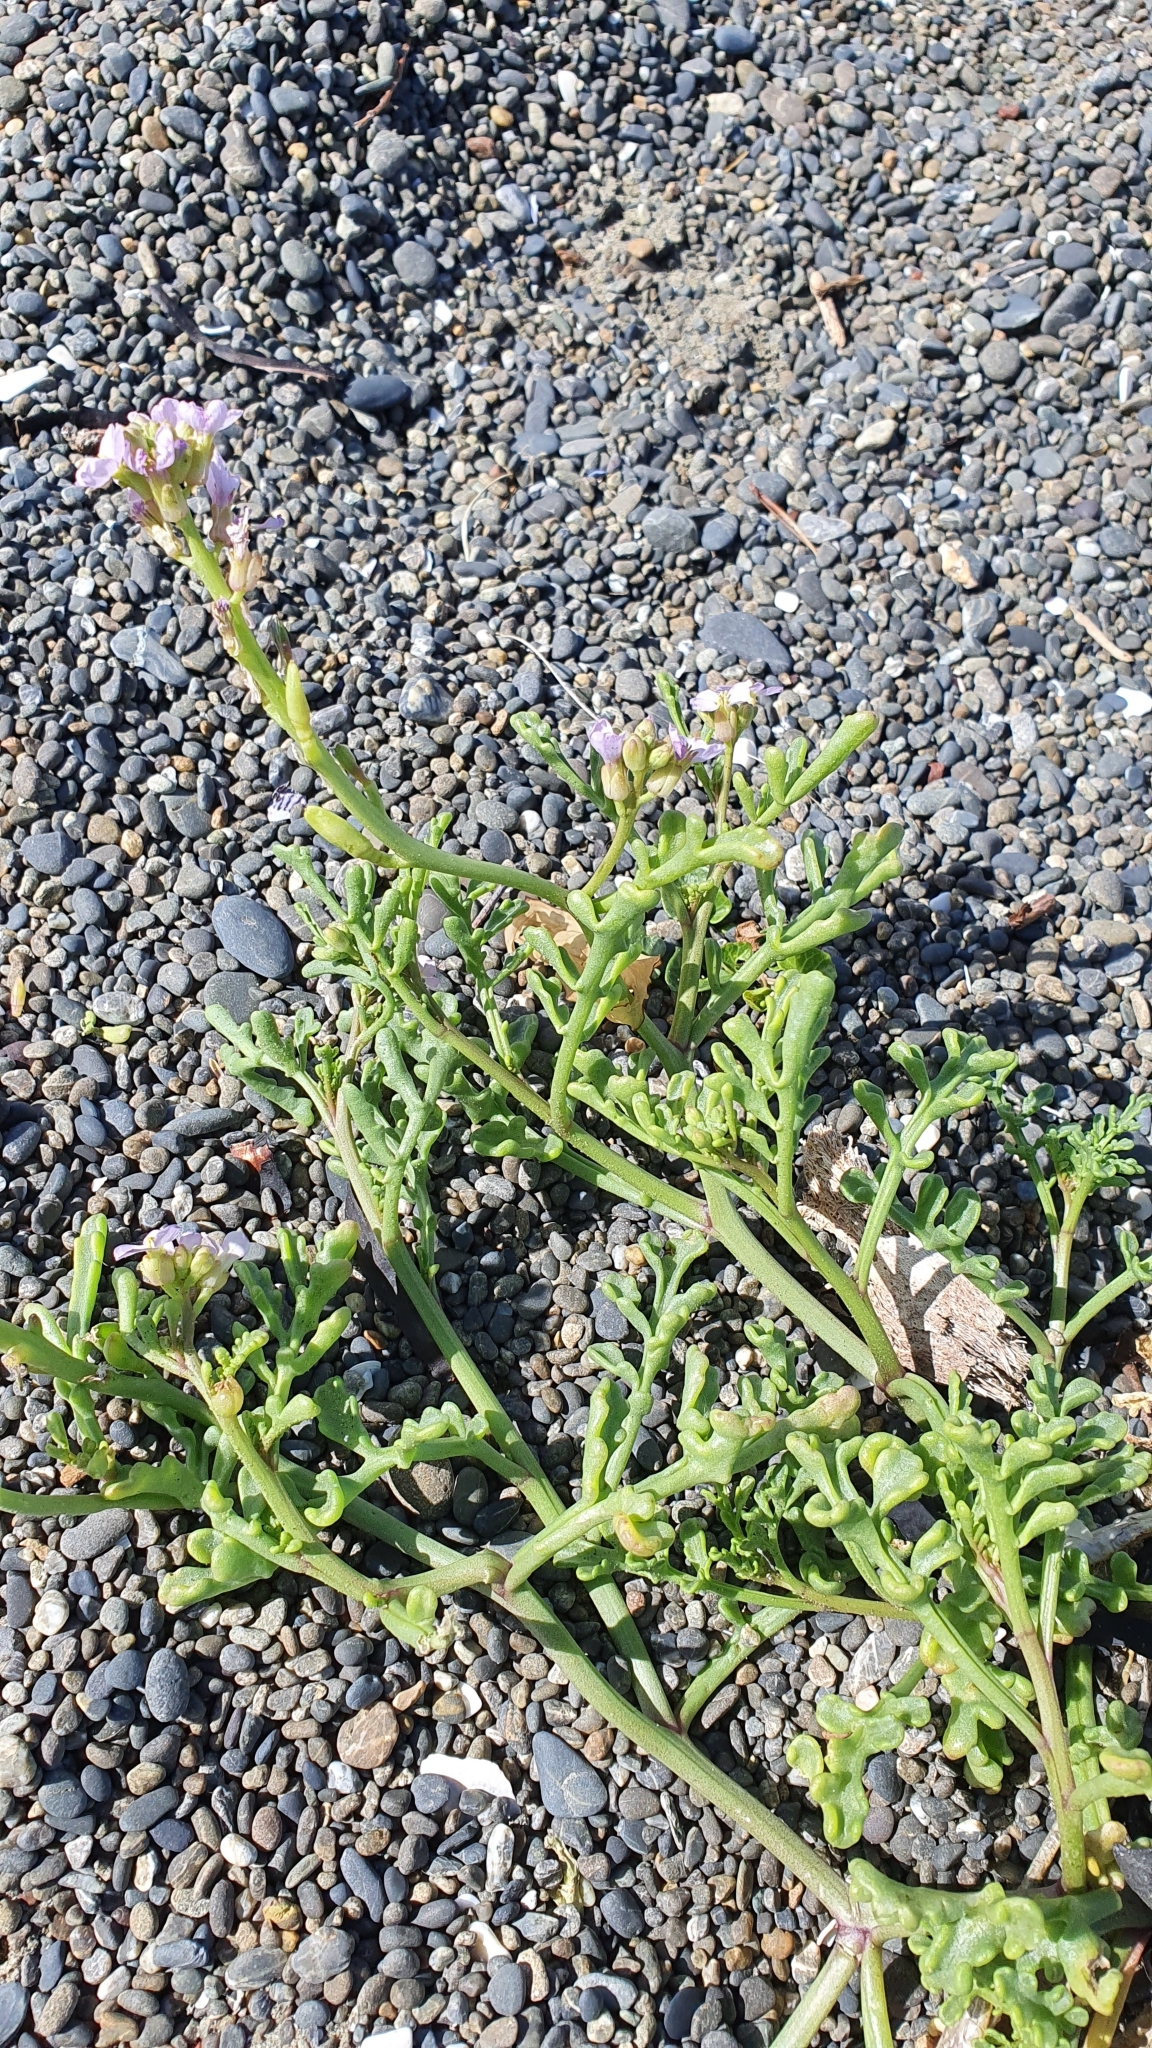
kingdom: Plantae
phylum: Tracheophyta
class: Magnoliopsida
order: Brassicales
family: Brassicaceae
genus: Cakile
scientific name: Cakile maritima
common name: Sea rocket
